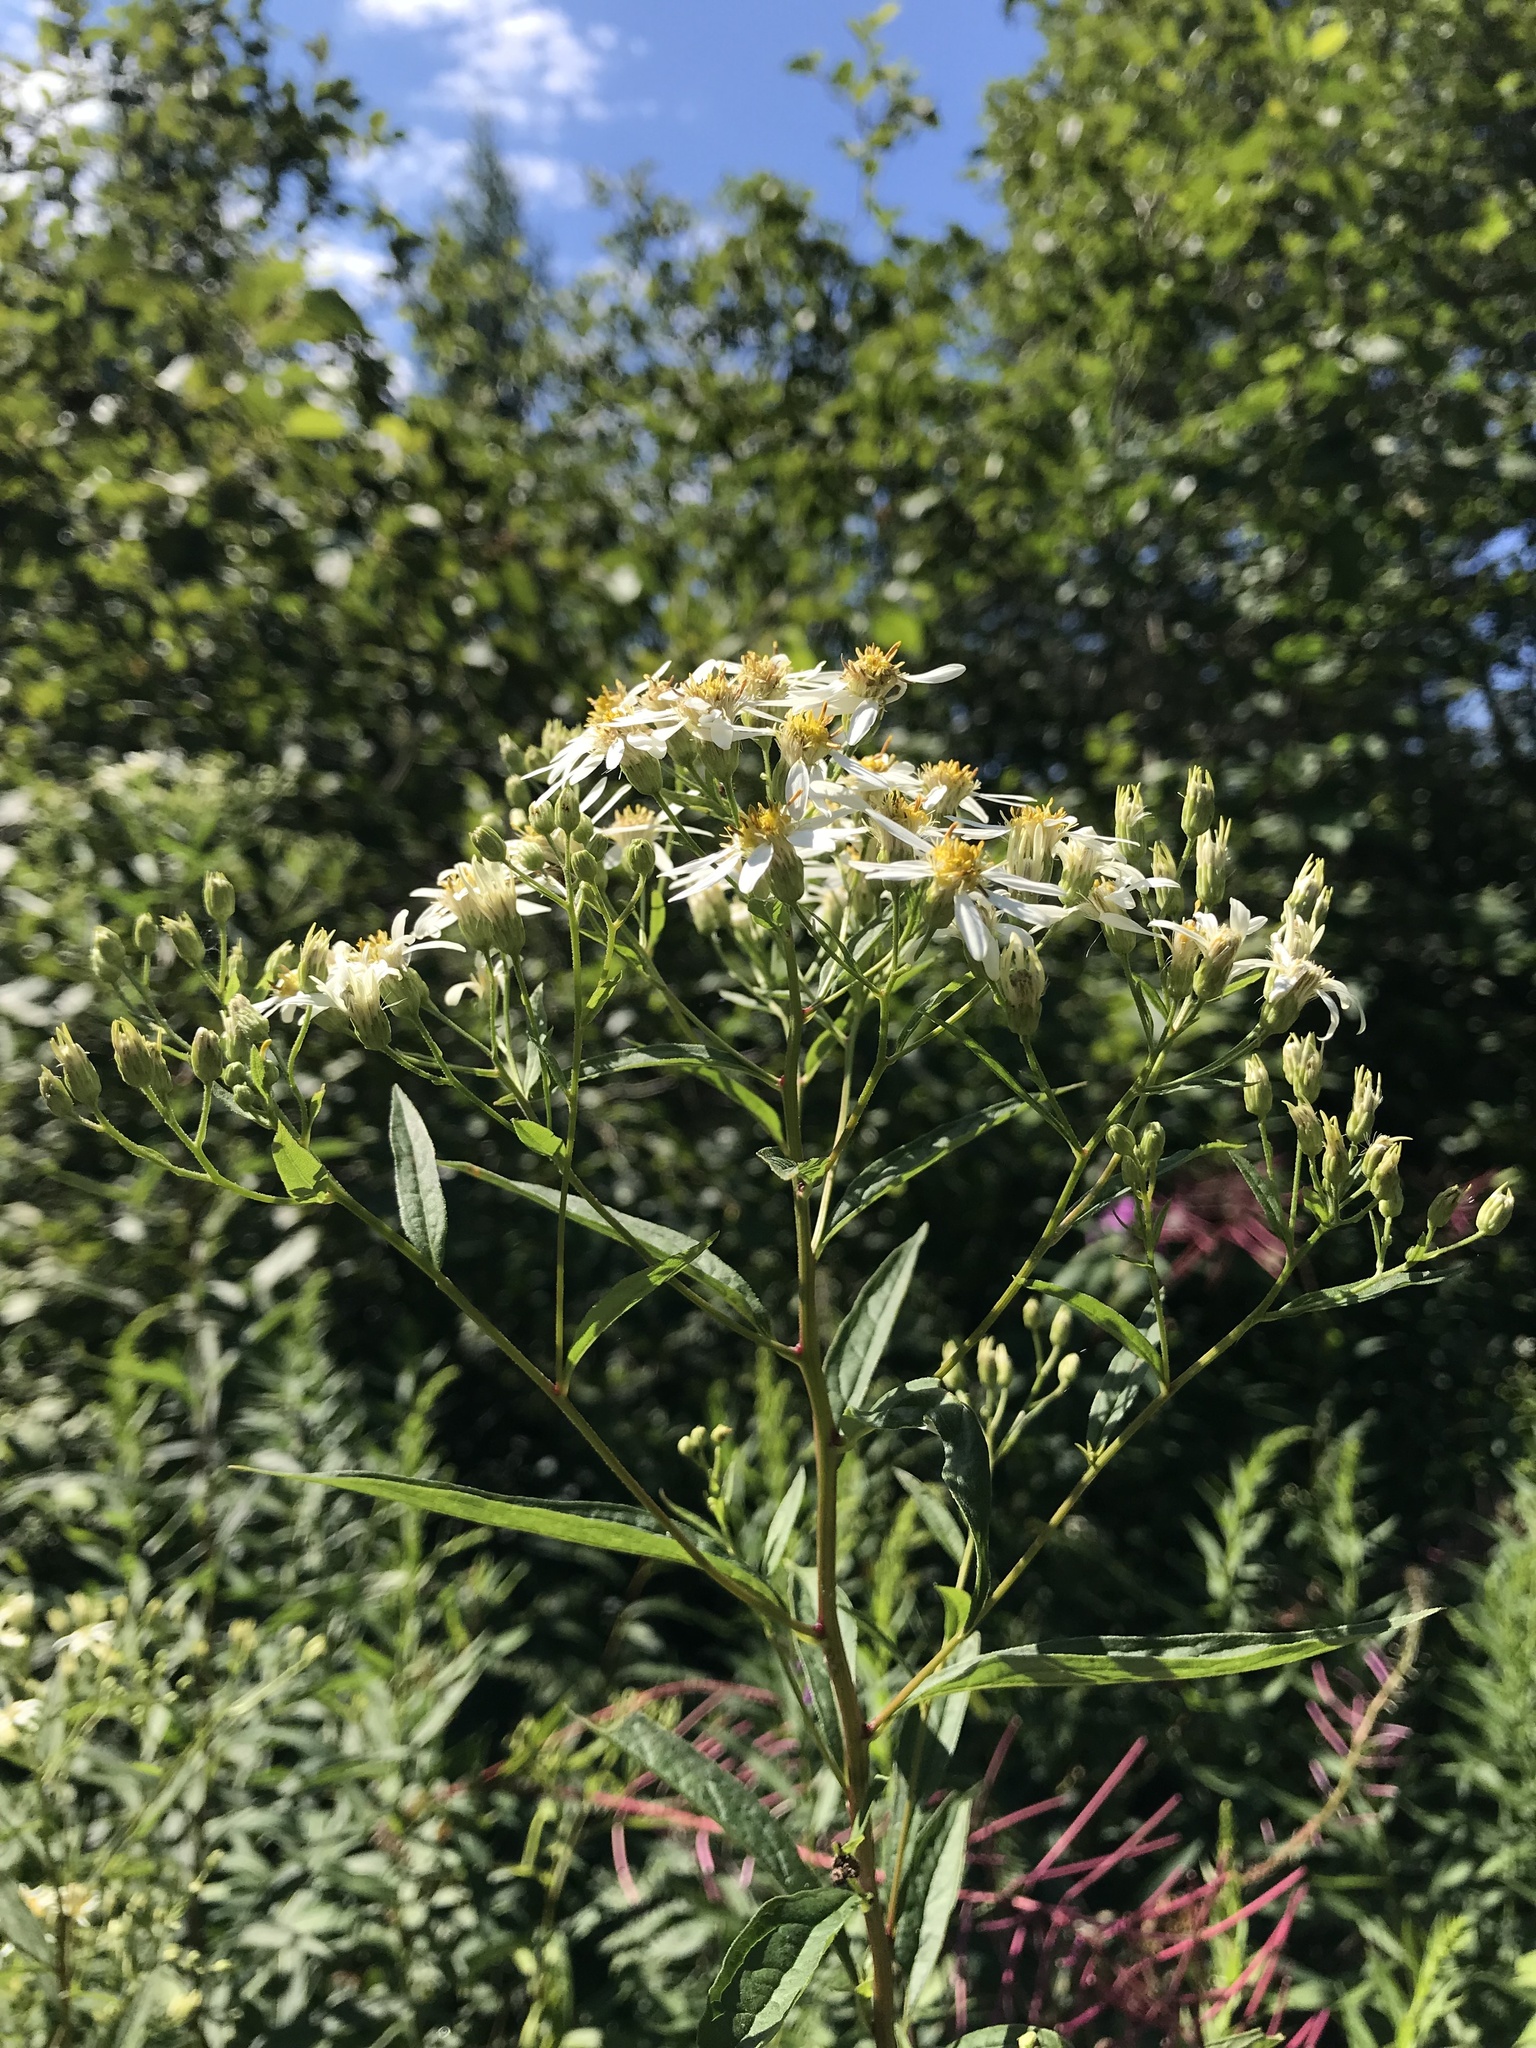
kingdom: Plantae
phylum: Tracheophyta
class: Magnoliopsida
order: Asterales
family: Asteraceae
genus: Doellingeria
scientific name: Doellingeria umbellata
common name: Flat-top white aster
